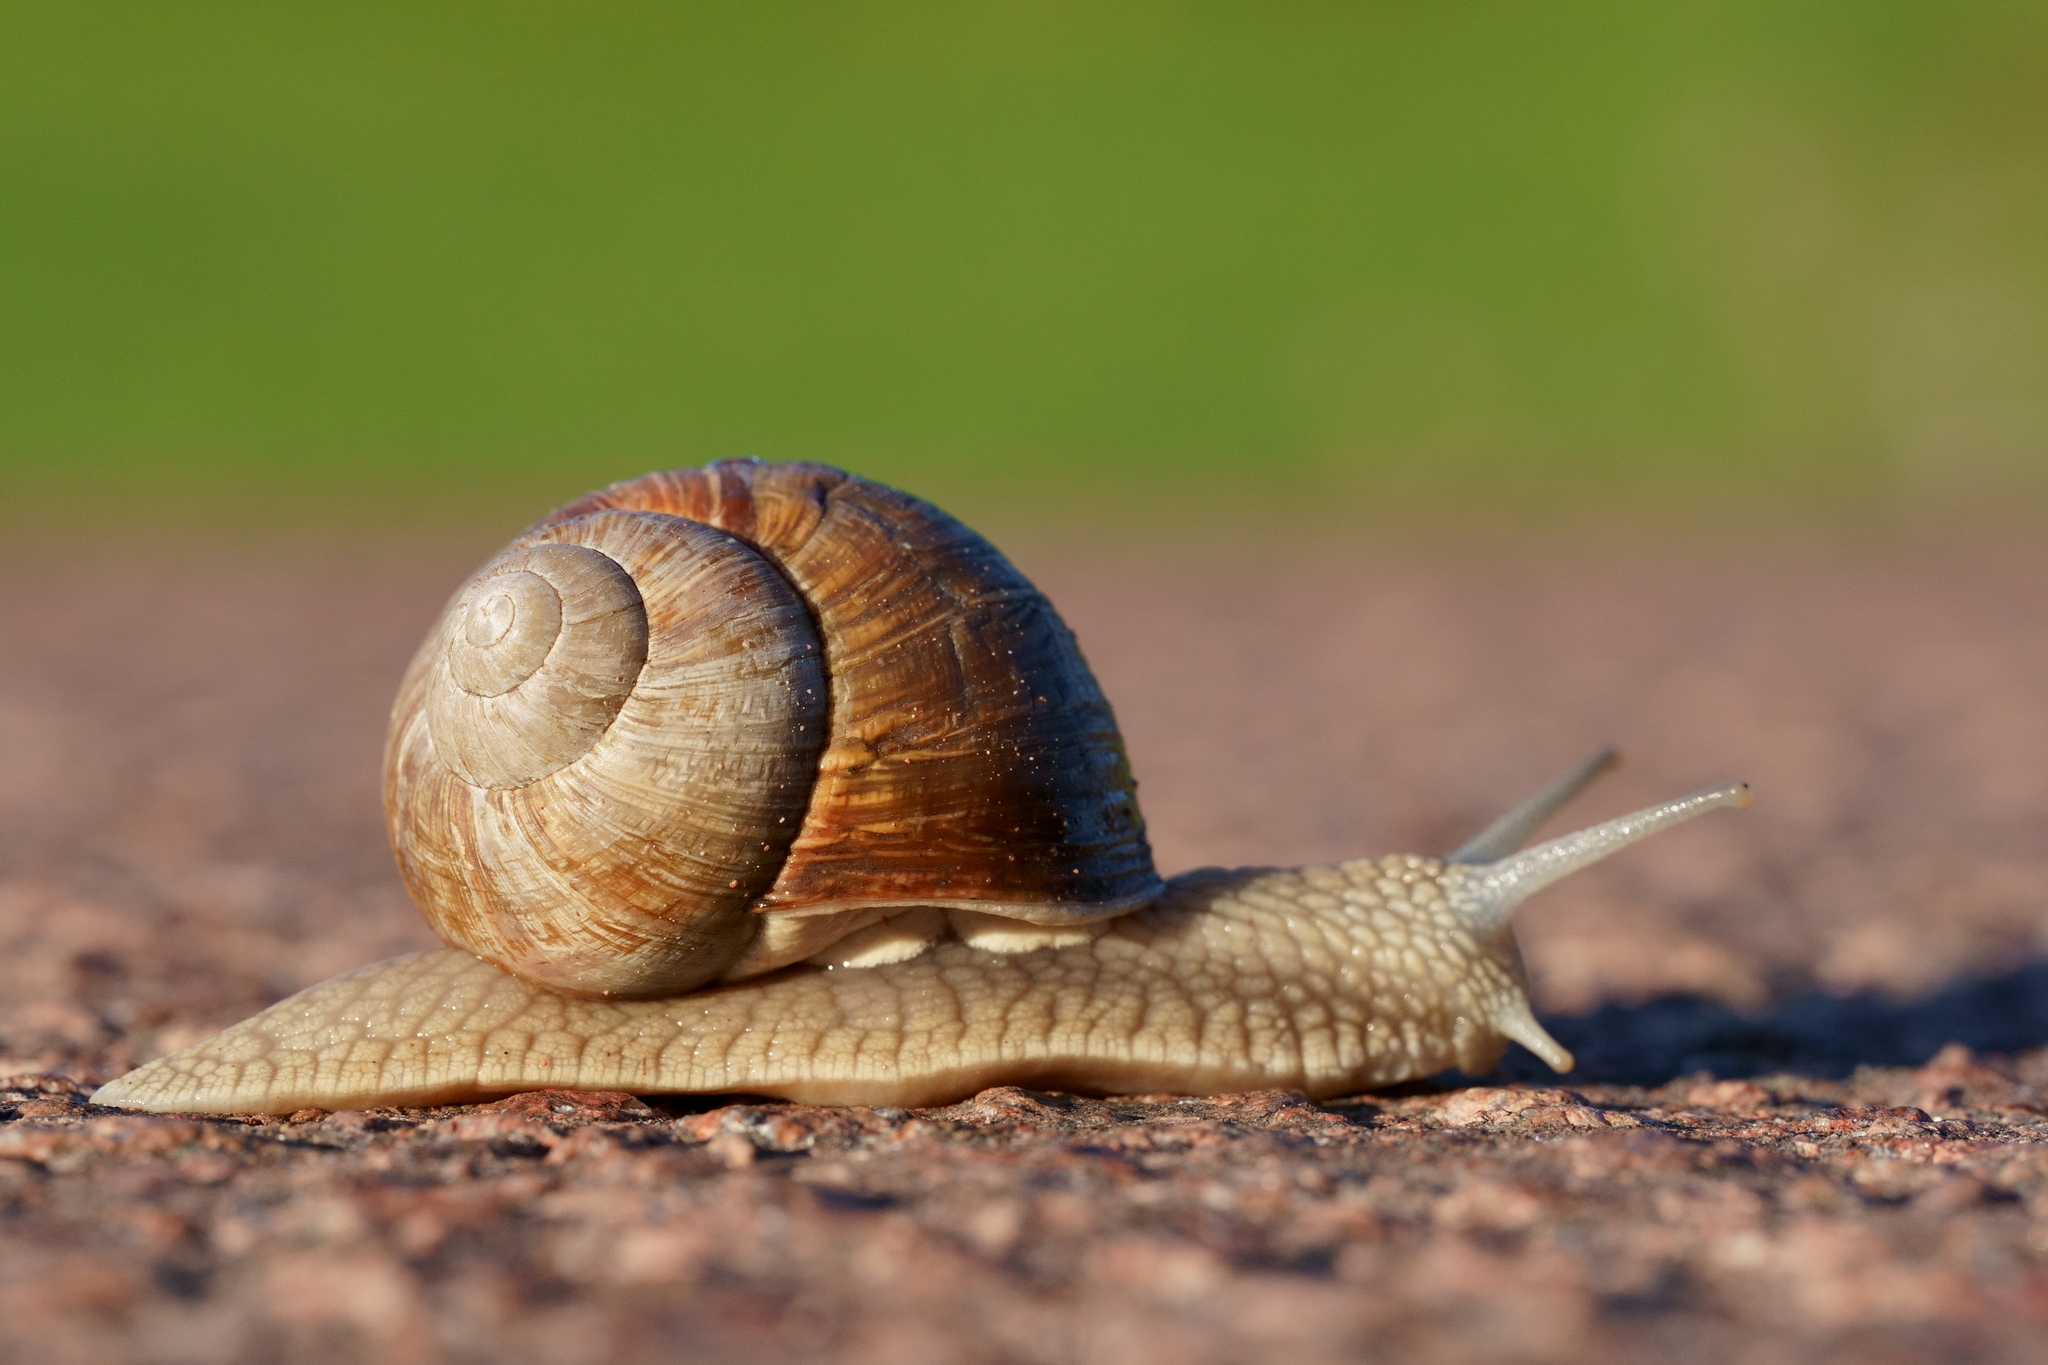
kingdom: Animalia
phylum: Mollusca
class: Gastropoda
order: Stylommatophora
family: Helicidae
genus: Helix
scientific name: Helix pomatia
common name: Roman snail
